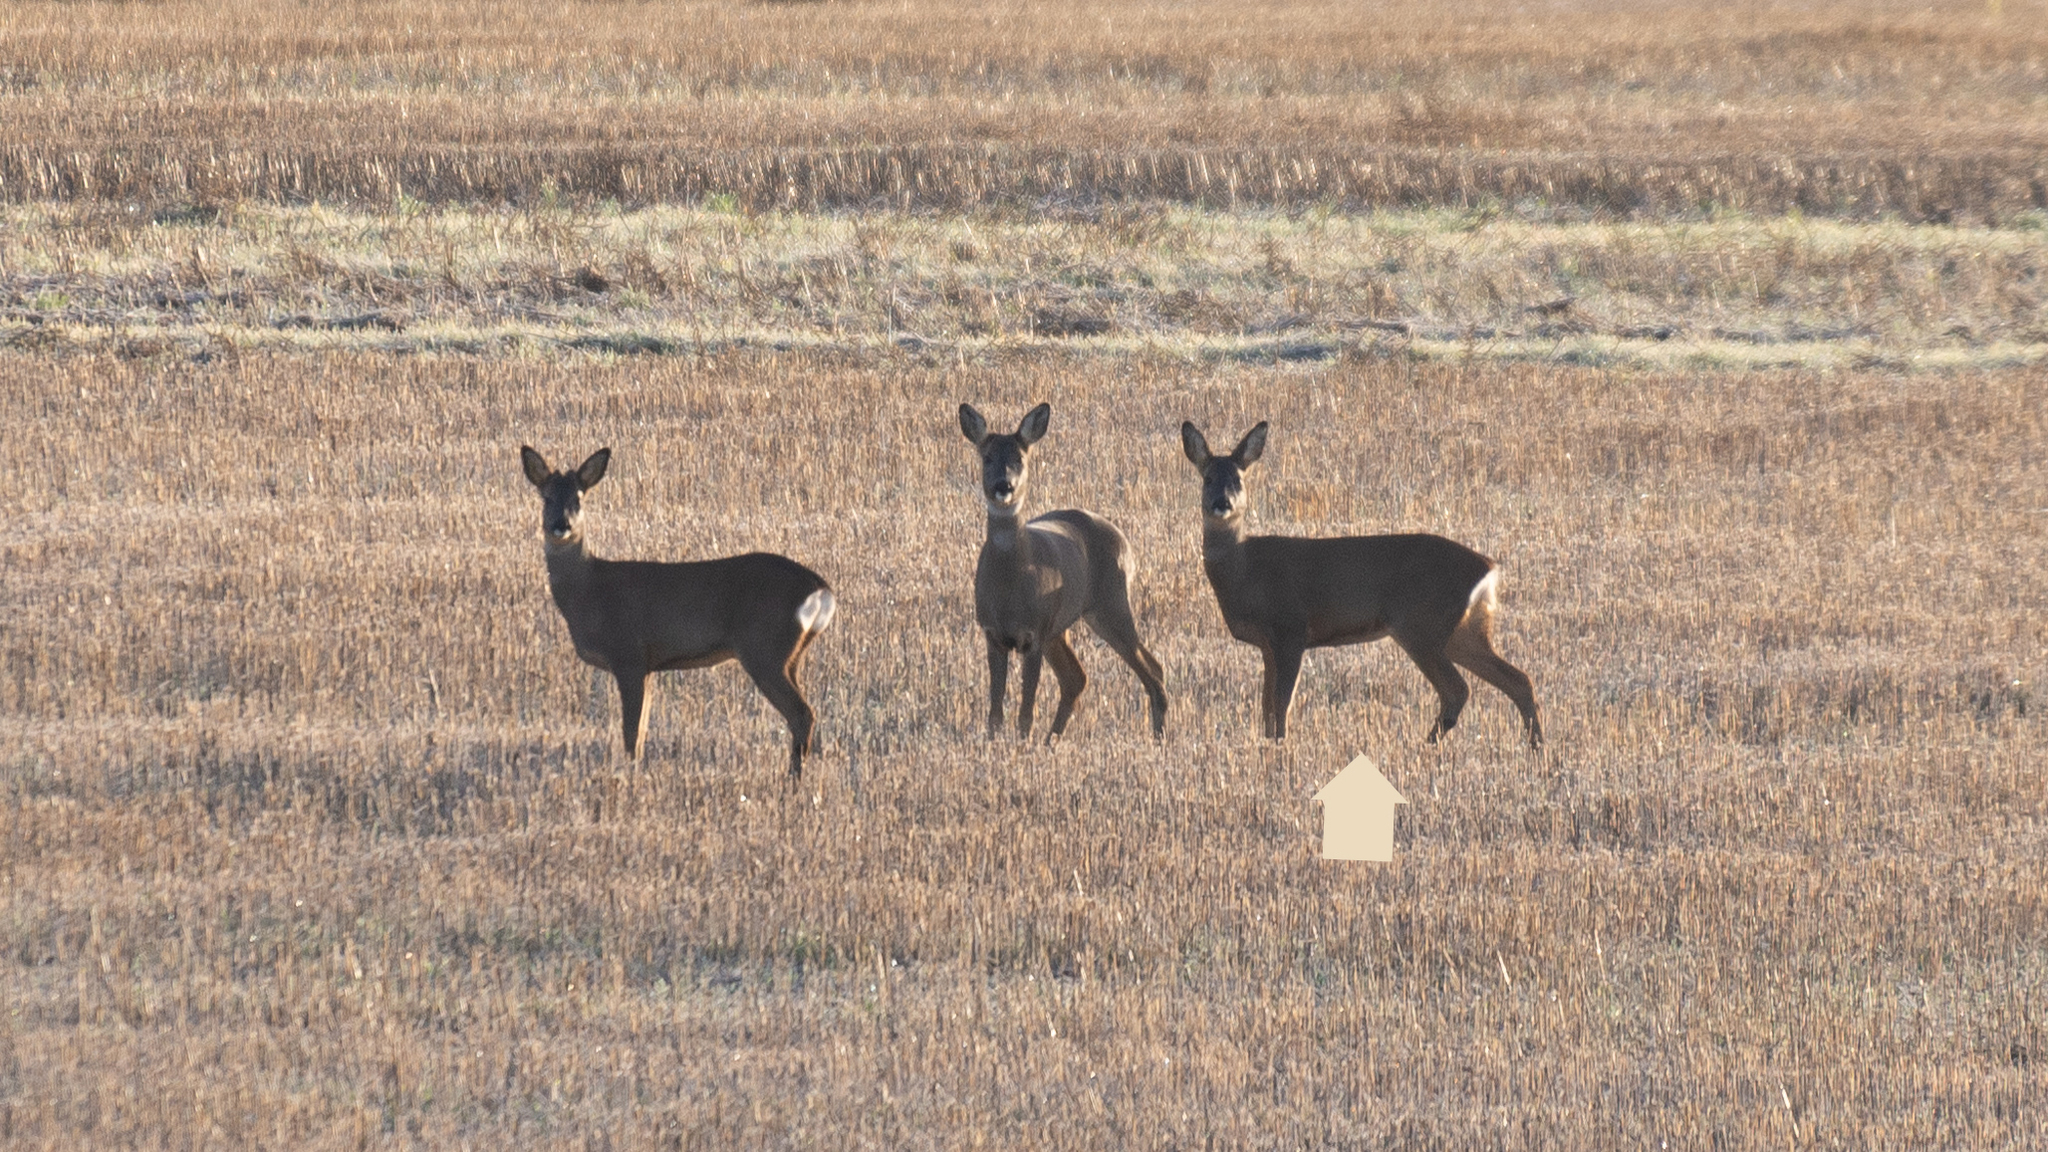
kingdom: Animalia
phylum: Chordata
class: Mammalia
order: Artiodactyla
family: Cervidae
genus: Capreolus
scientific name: Capreolus capreolus
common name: Western roe deer
